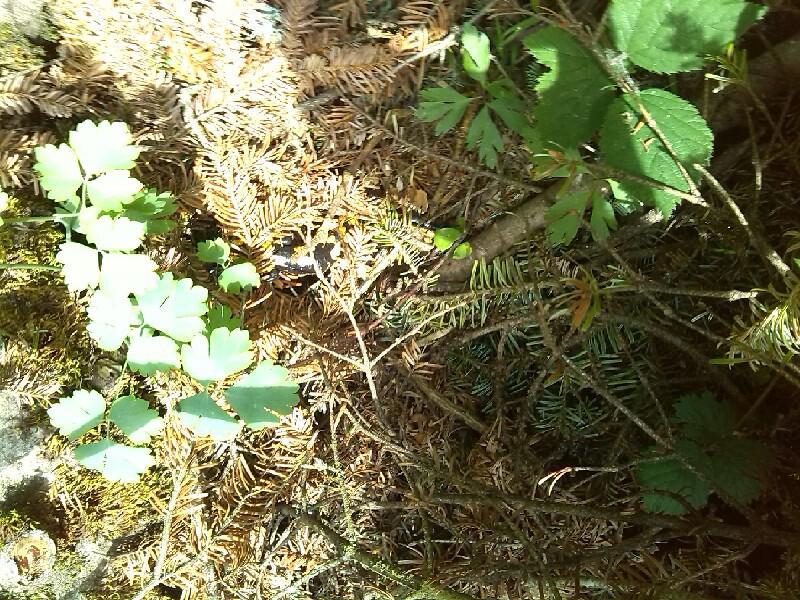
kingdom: Animalia
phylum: Chordata
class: Amphibia
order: Caudata
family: Salamandridae
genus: Salamandra
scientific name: Salamandra salamandra
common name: Fire salamander
